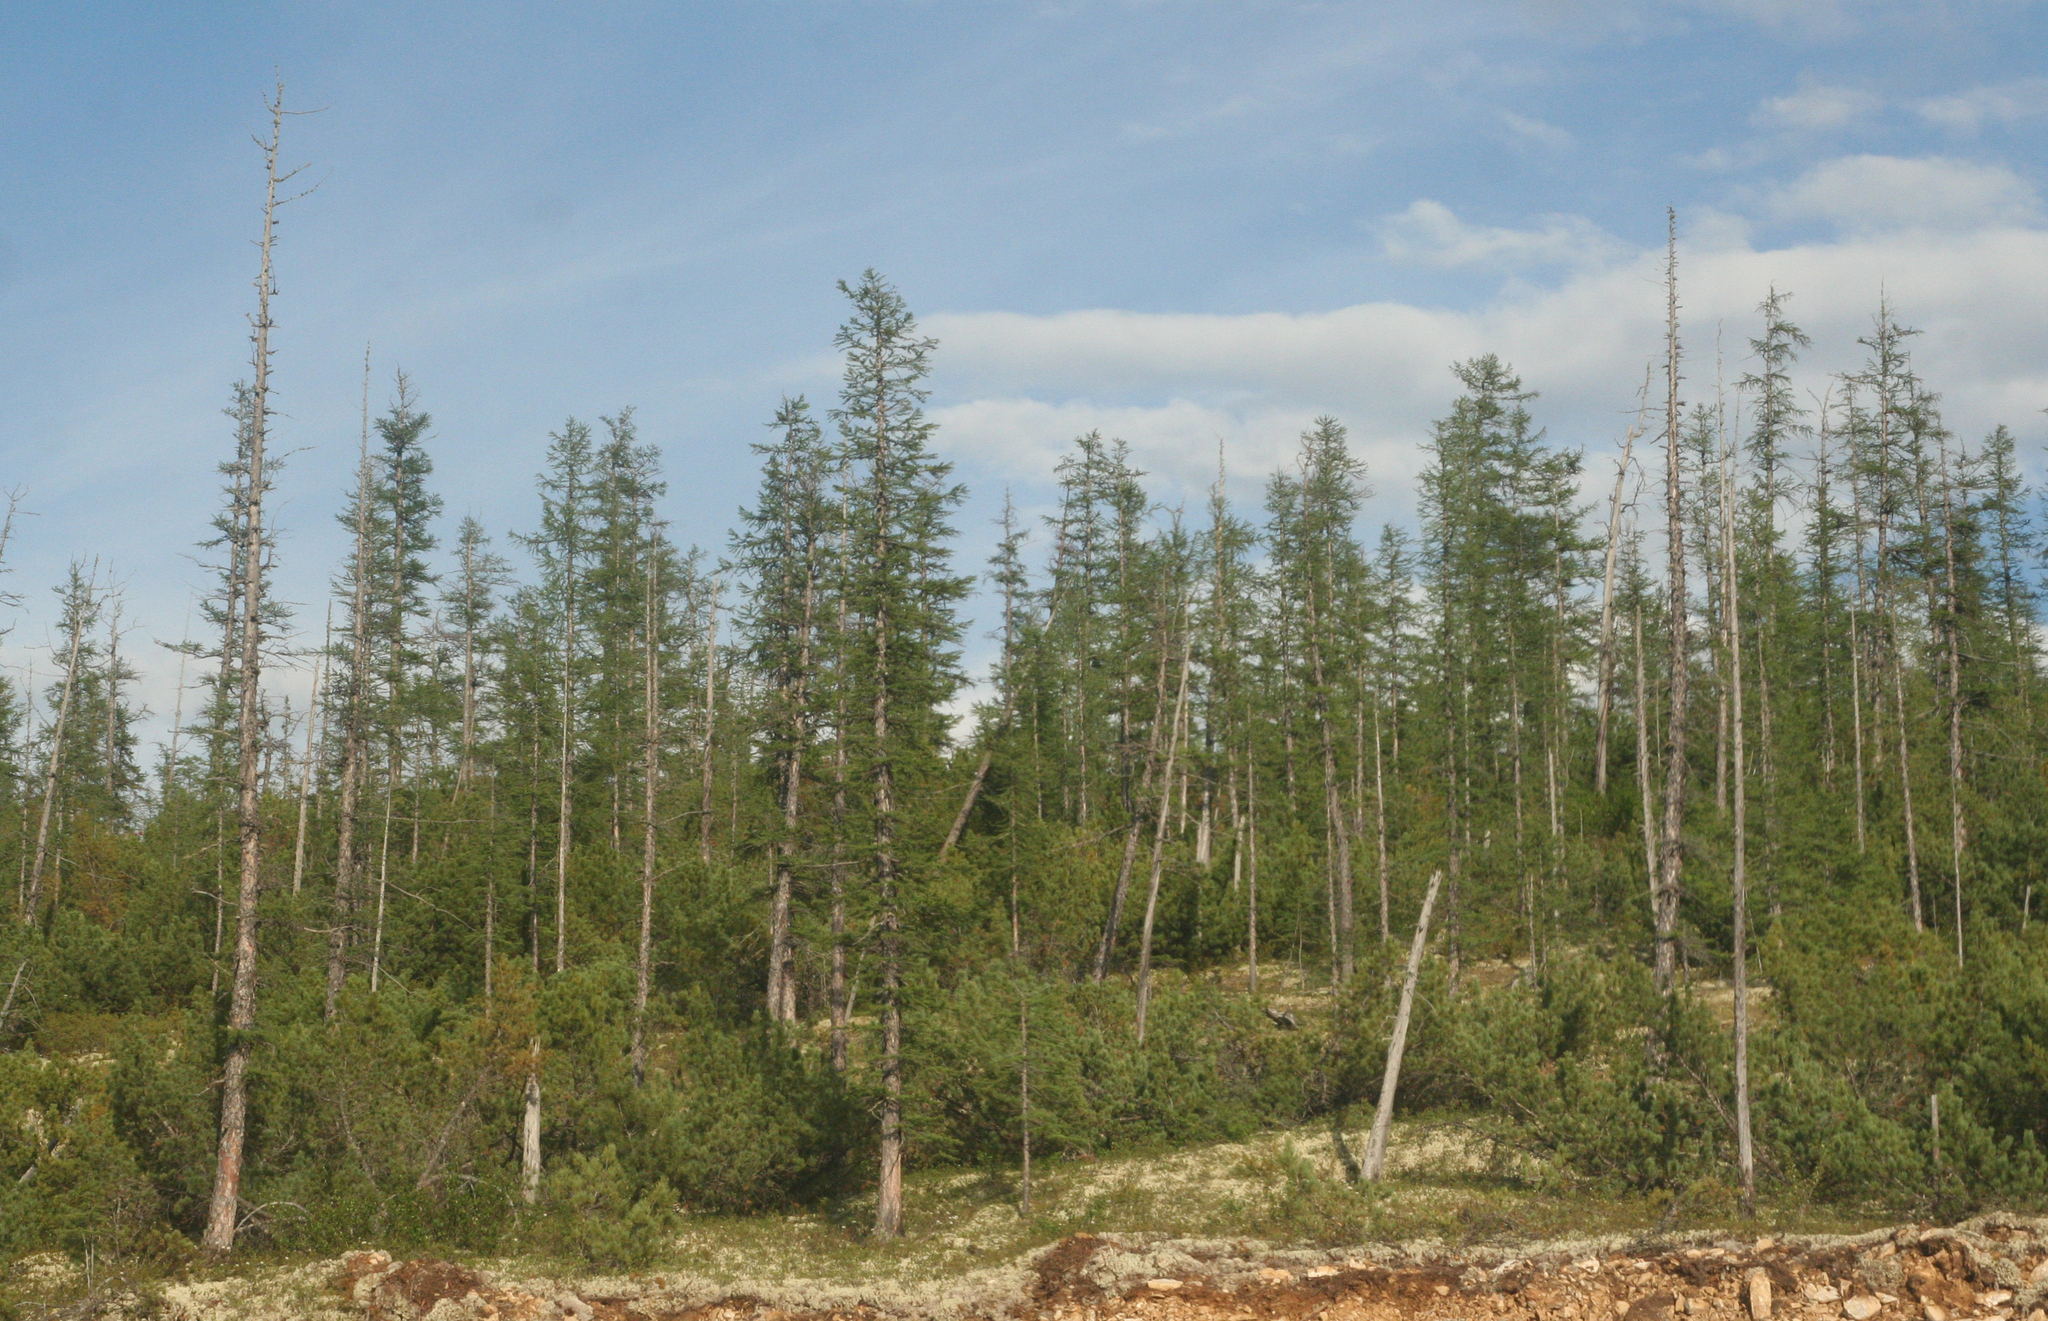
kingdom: Plantae
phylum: Tracheophyta
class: Pinopsida
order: Pinales
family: Pinaceae
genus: Larix
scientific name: Larix gmelinii
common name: Dahurian larch
